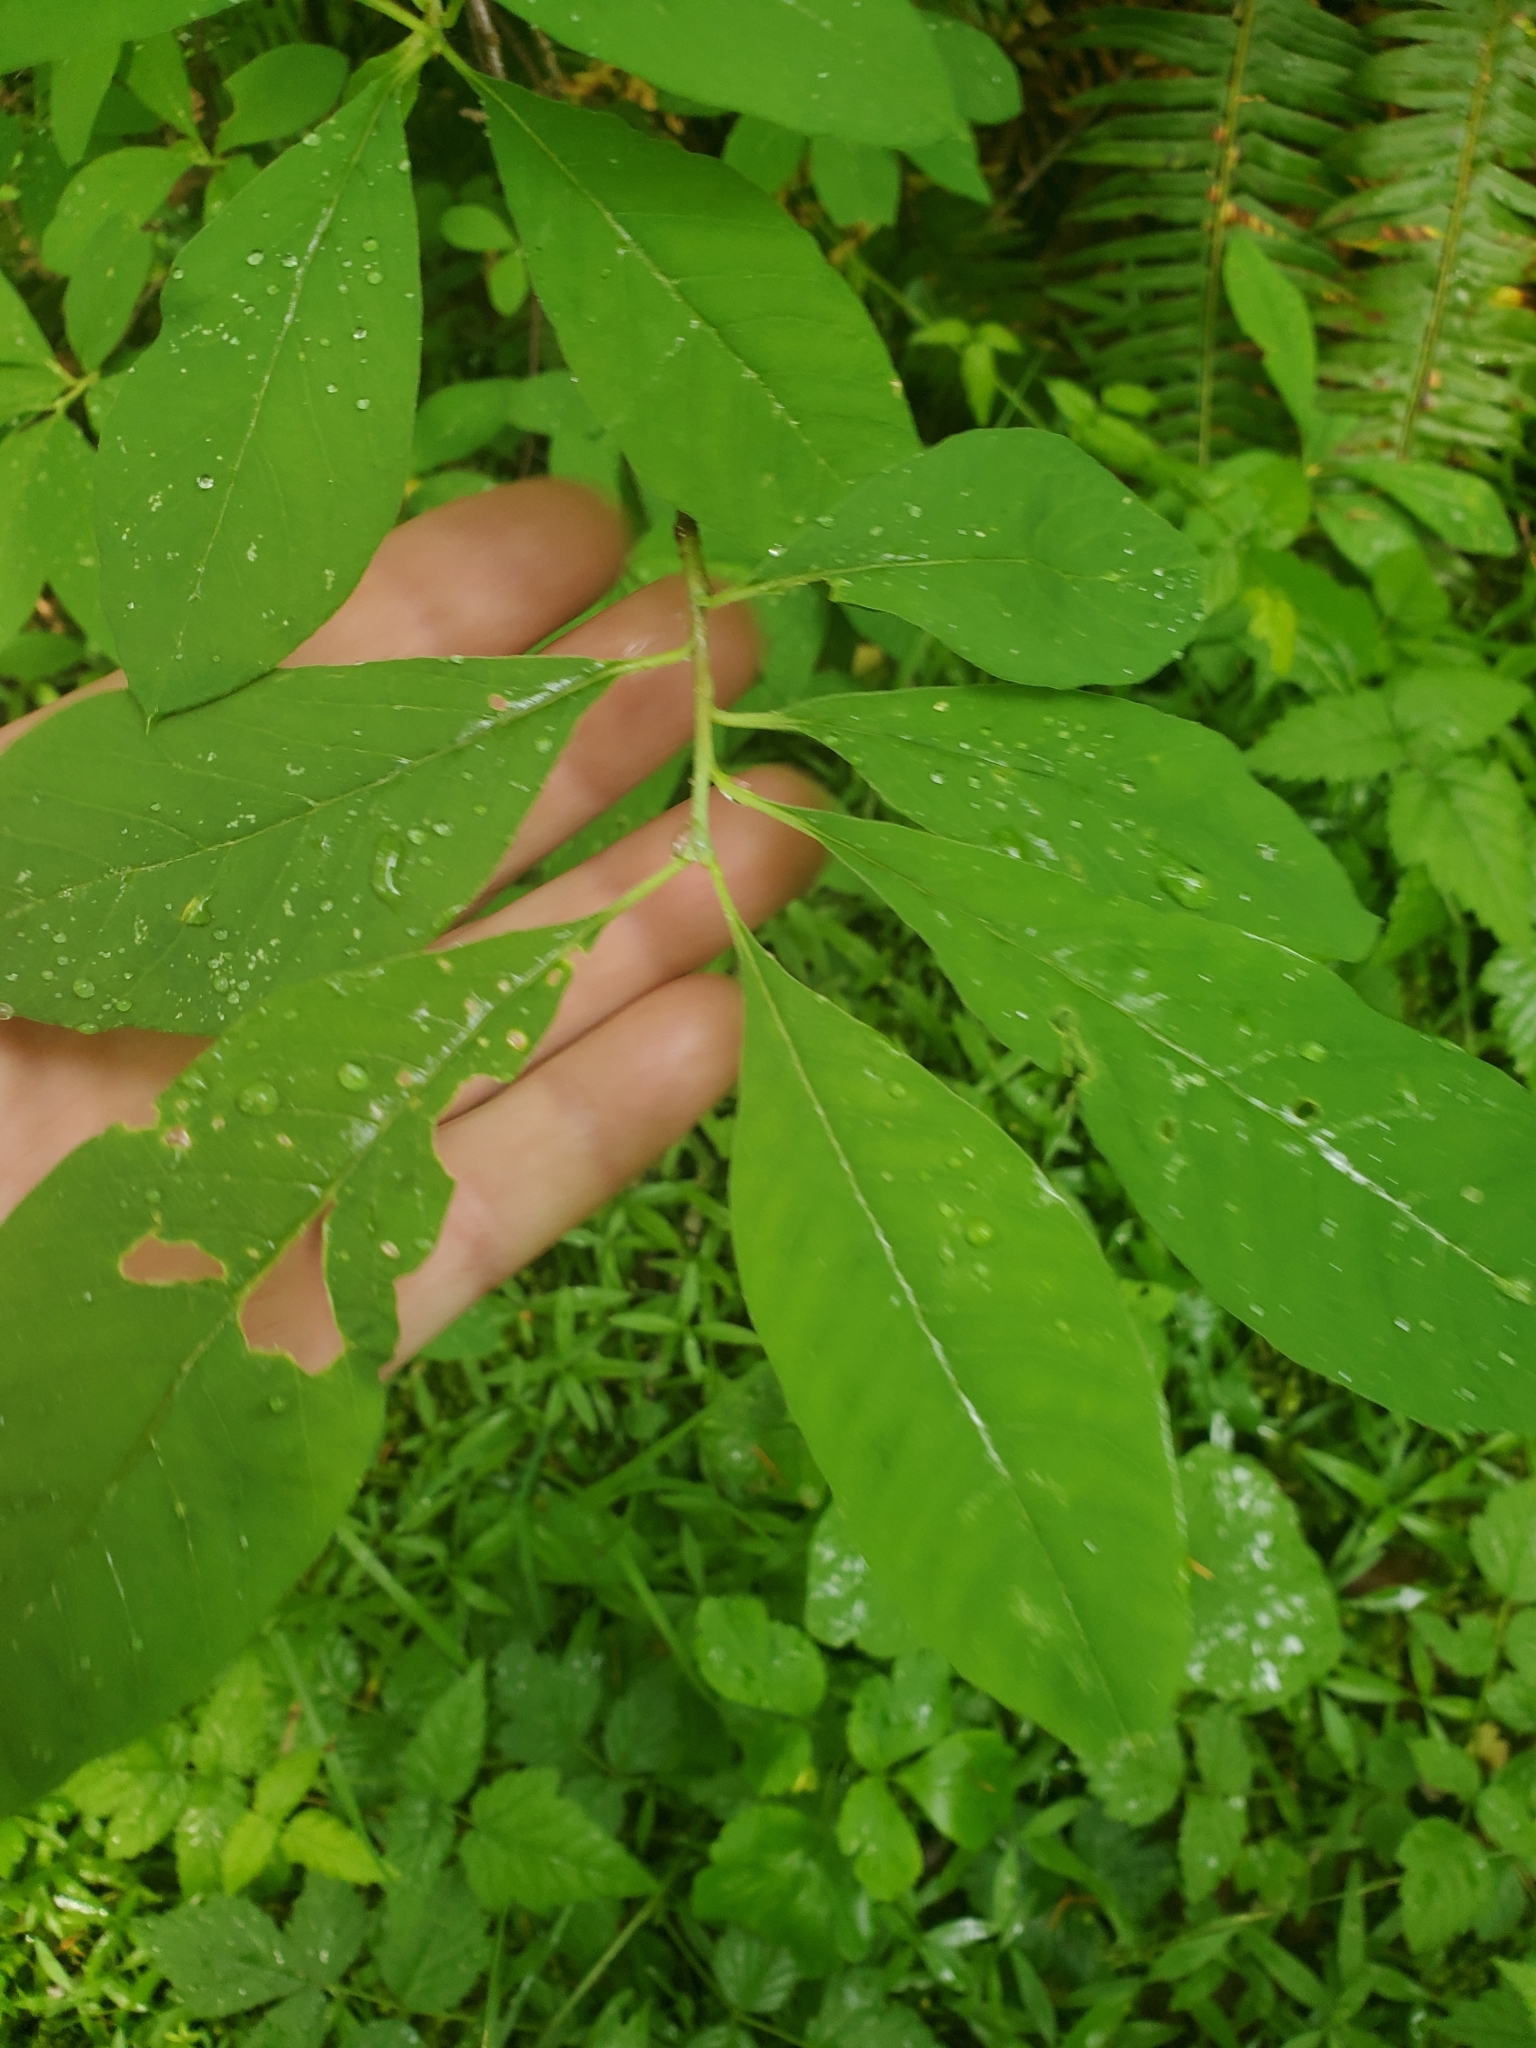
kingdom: Plantae
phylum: Tracheophyta
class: Magnoliopsida
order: Rosales
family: Rosaceae
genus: Oemleria
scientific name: Oemleria cerasiformis
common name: Osoberry
